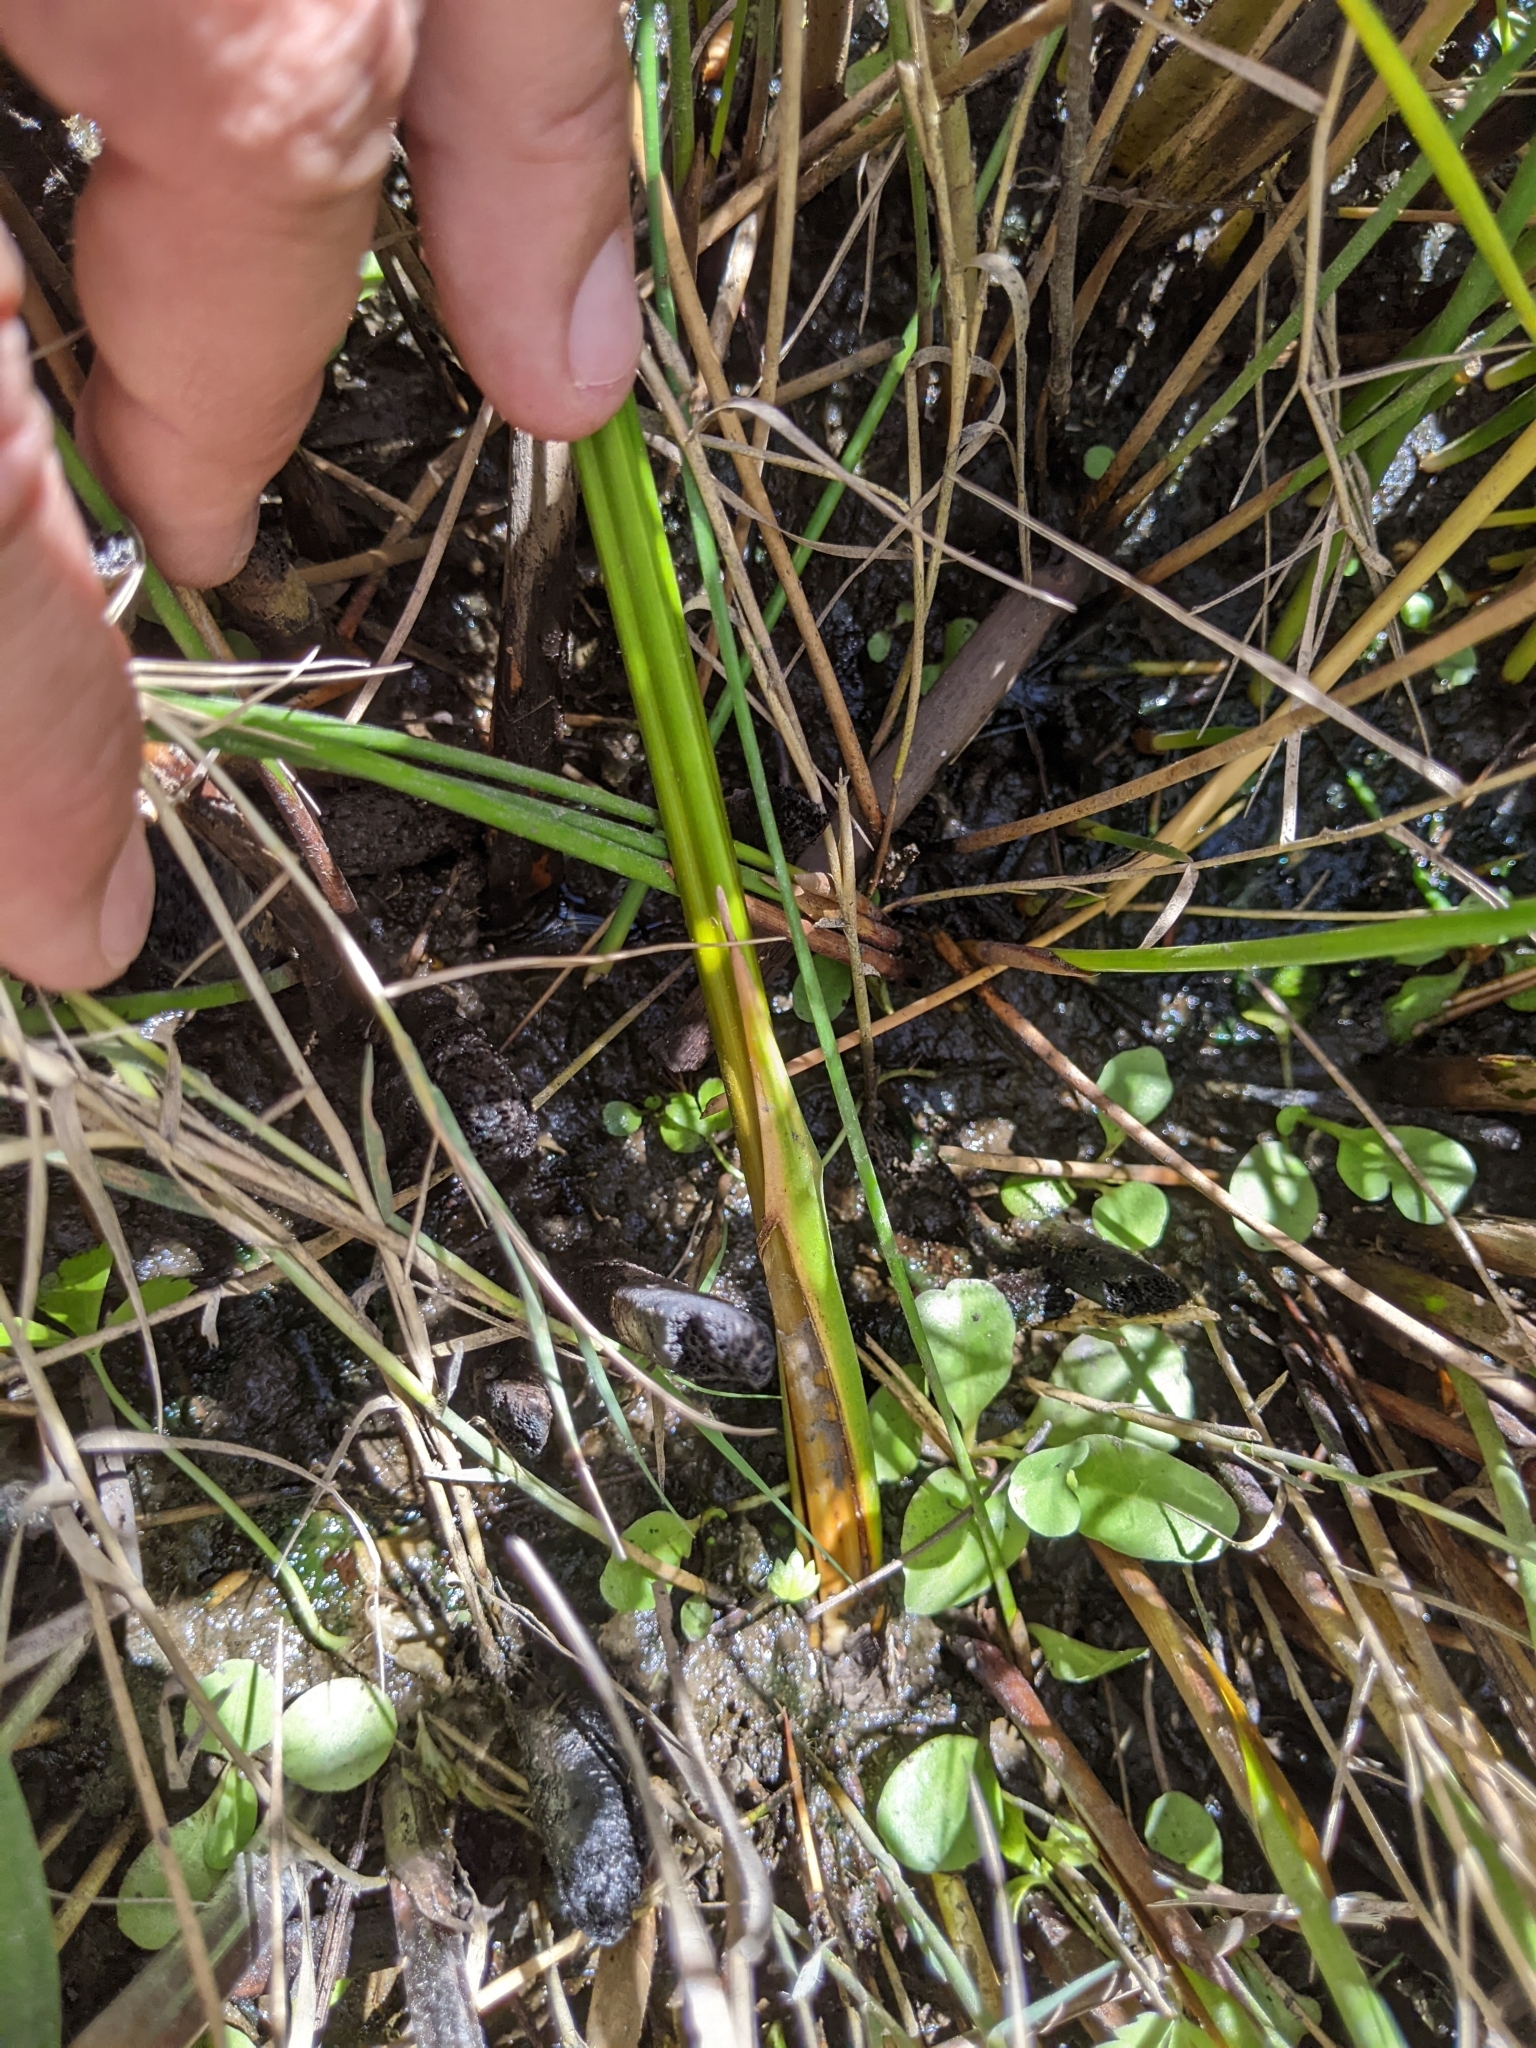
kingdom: Plantae
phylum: Tracheophyta
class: Liliopsida
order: Poales
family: Cyperaceae
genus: Schoenoplectus
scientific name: Schoenoplectus americanus
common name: American three-square bulrush
